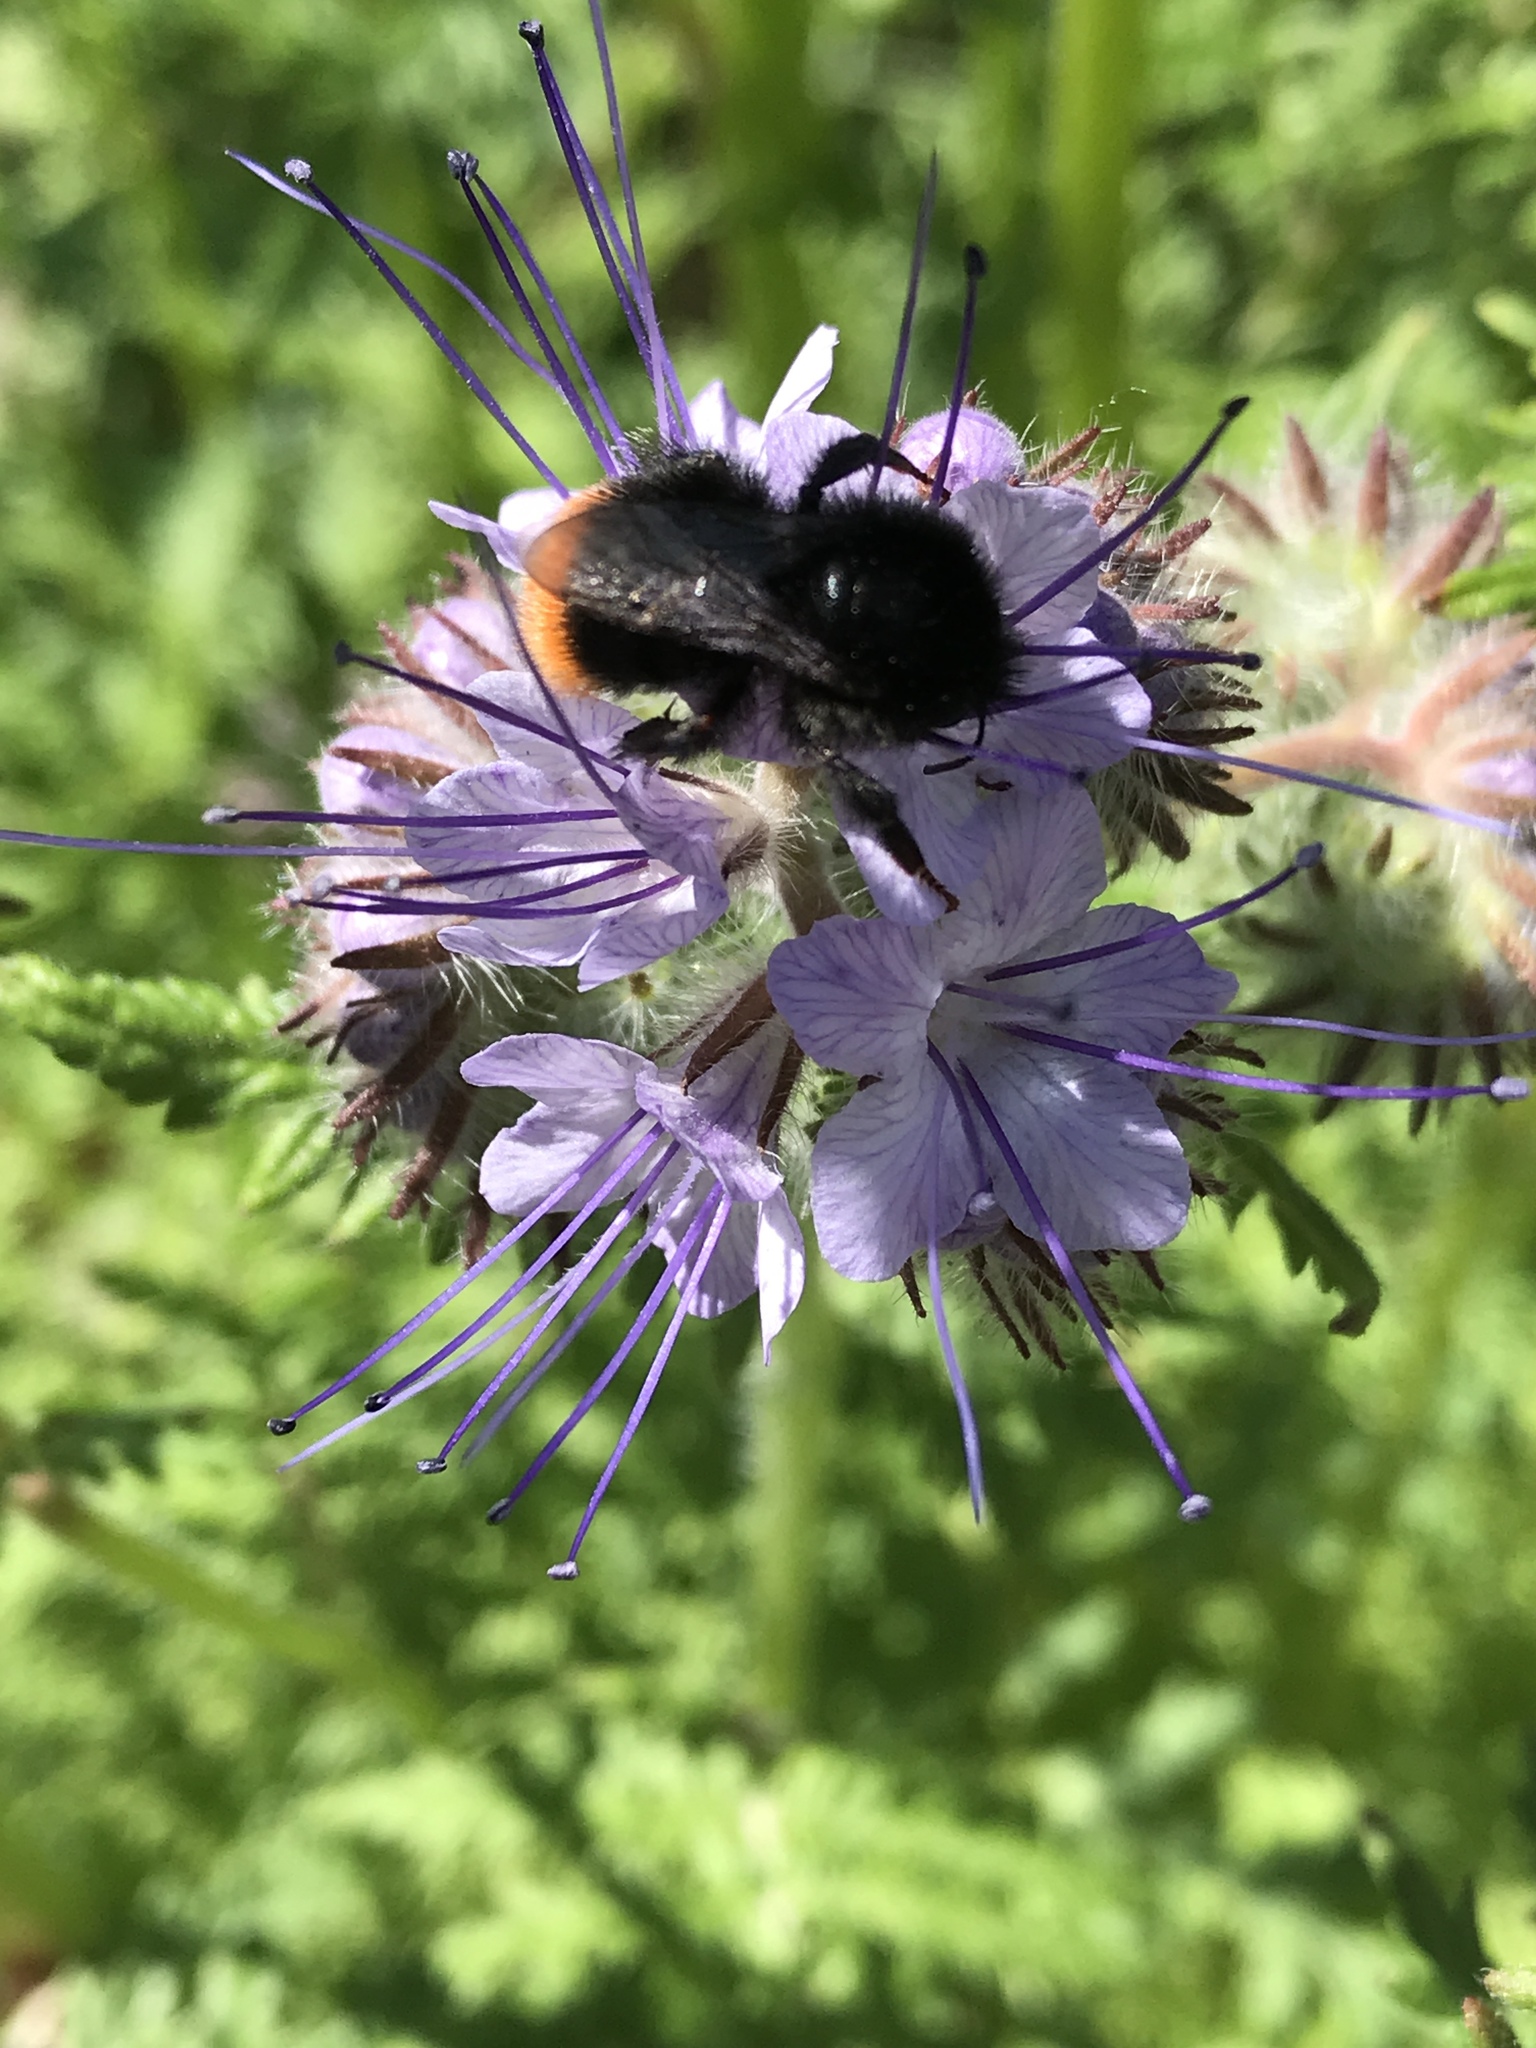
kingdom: Animalia
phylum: Arthropoda
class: Insecta
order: Hymenoptera
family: Apidae
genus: Bombus
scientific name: Bombus lapidarius
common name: Large red-tailed humble-bee
